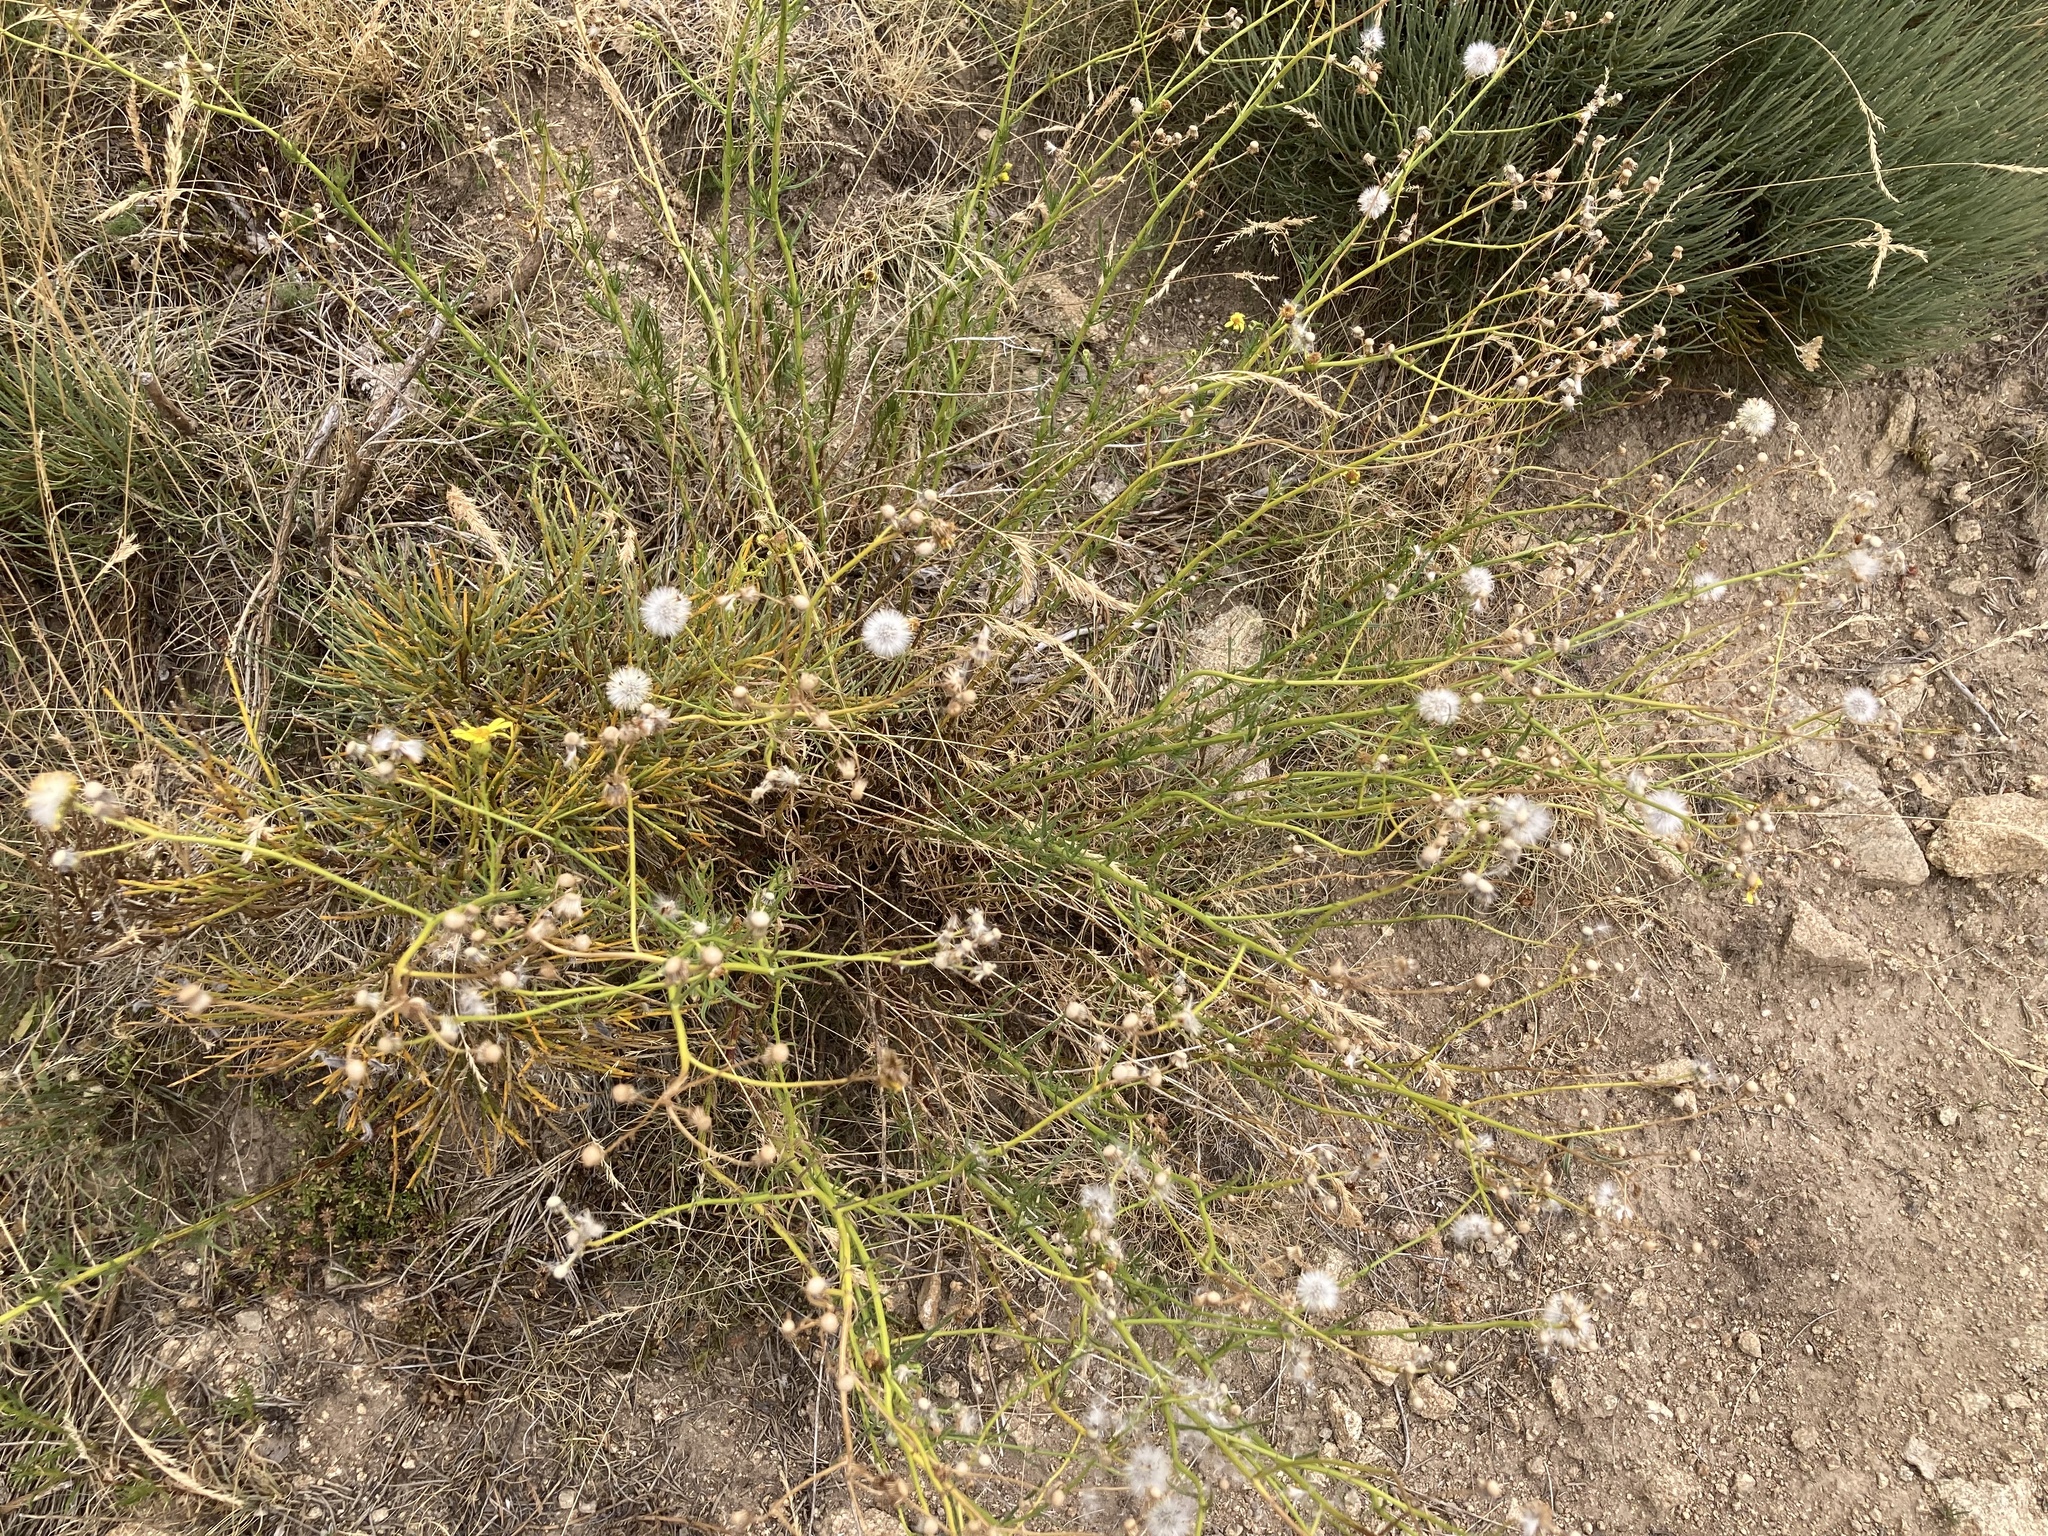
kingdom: Plantae
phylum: Tracheophyta
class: Magnoliopsida
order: Asterales
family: Asteraceae
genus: Senecio
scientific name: Senecio inaequidens
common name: Narrow-leaved ragwort
